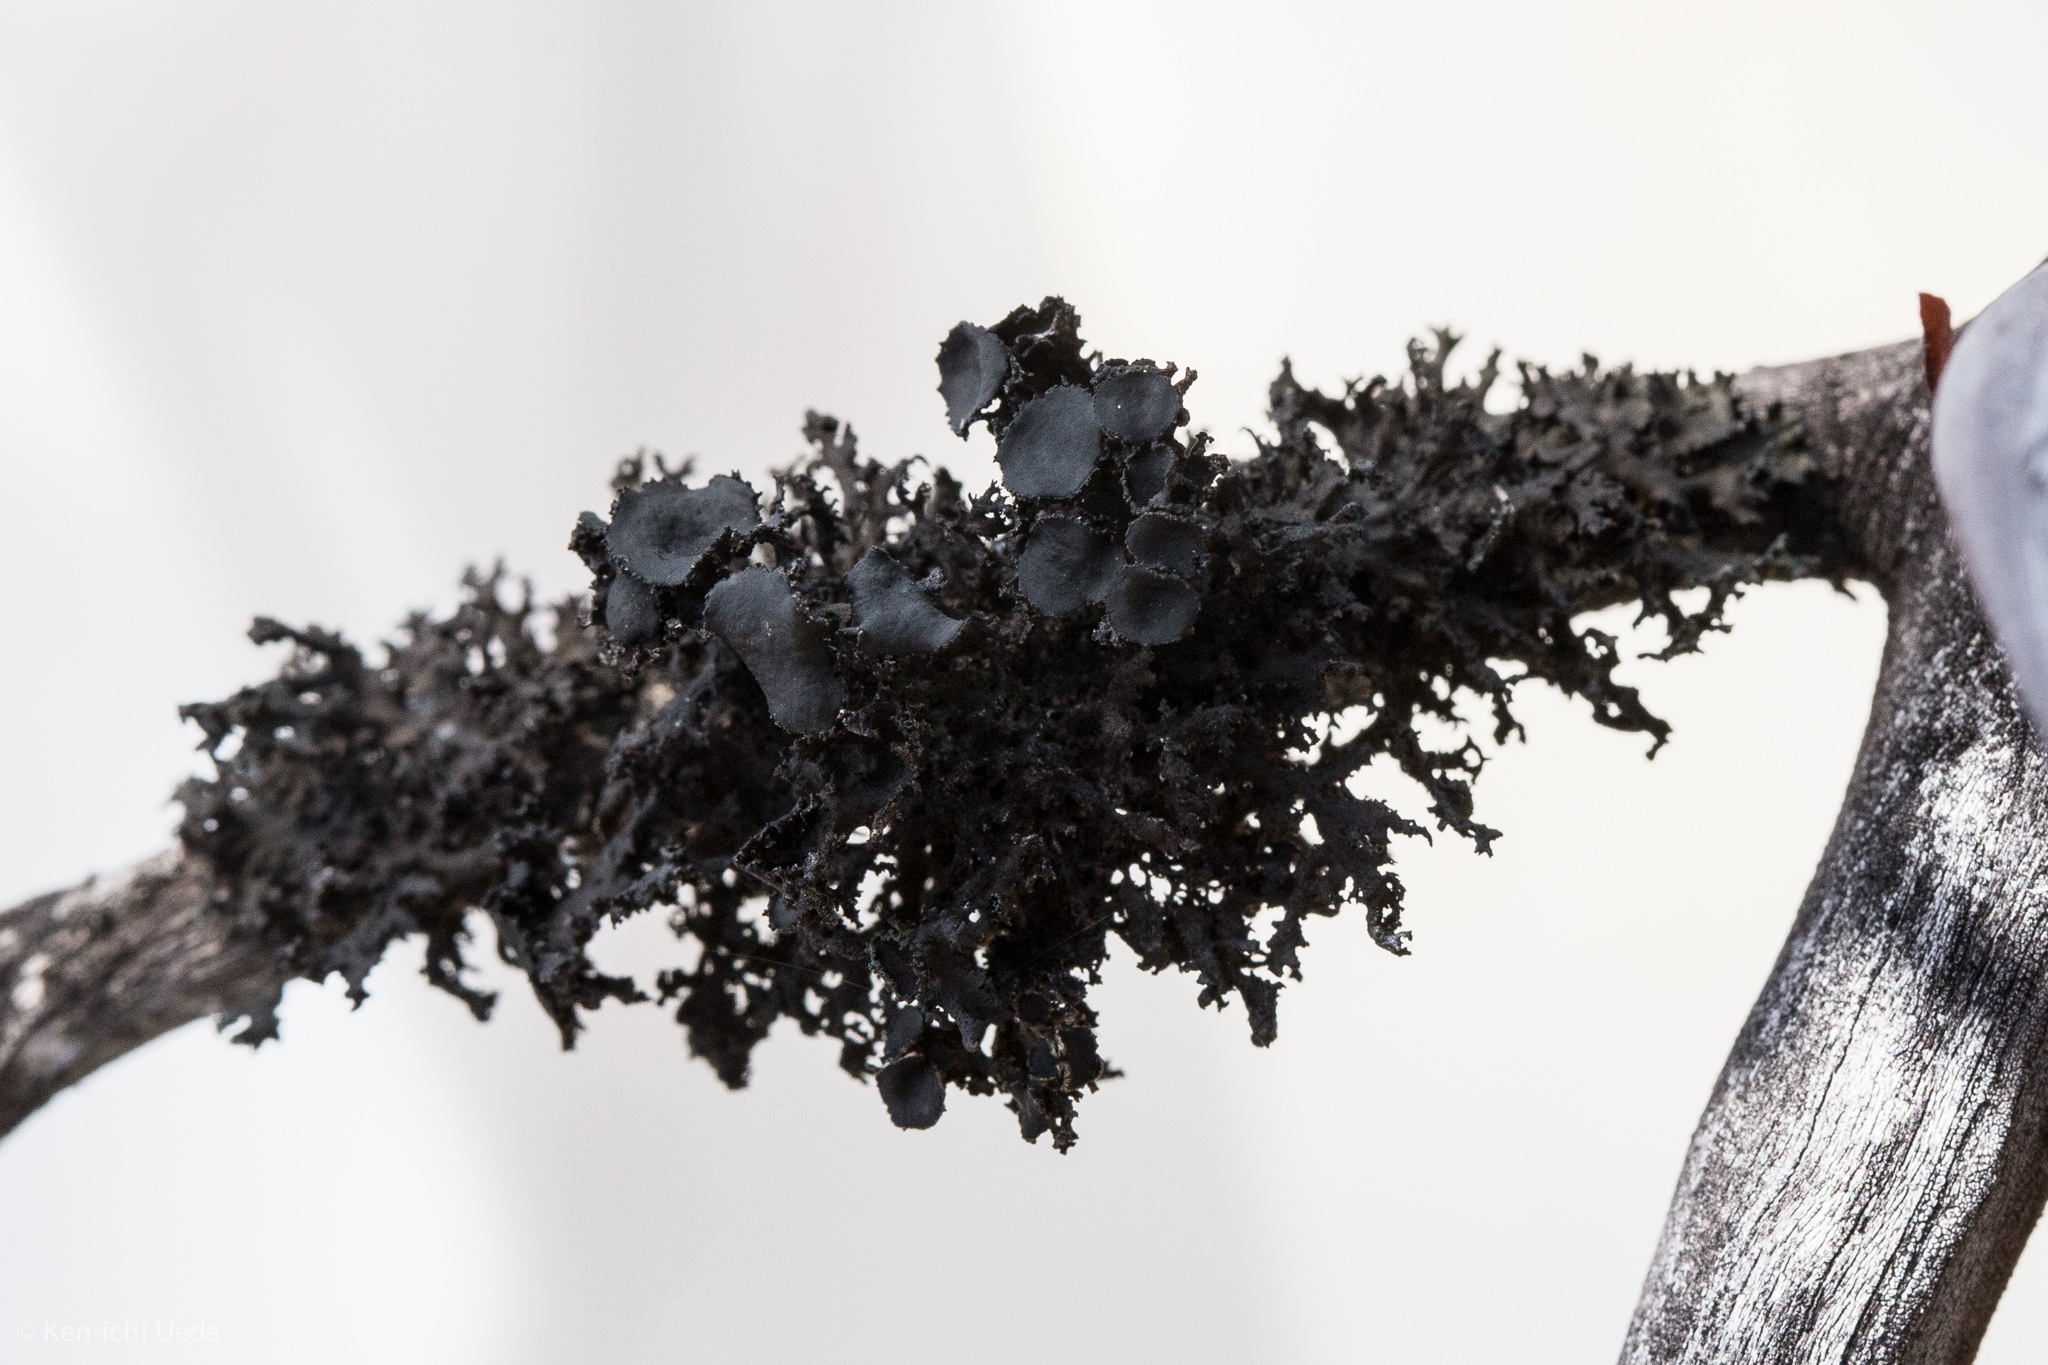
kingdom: Fungi
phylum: Ascomycota
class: Lecanoromycetes
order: Lecanorales
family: Parmeliaceae
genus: Nephromopsis
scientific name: Nephromopsis merrillii
